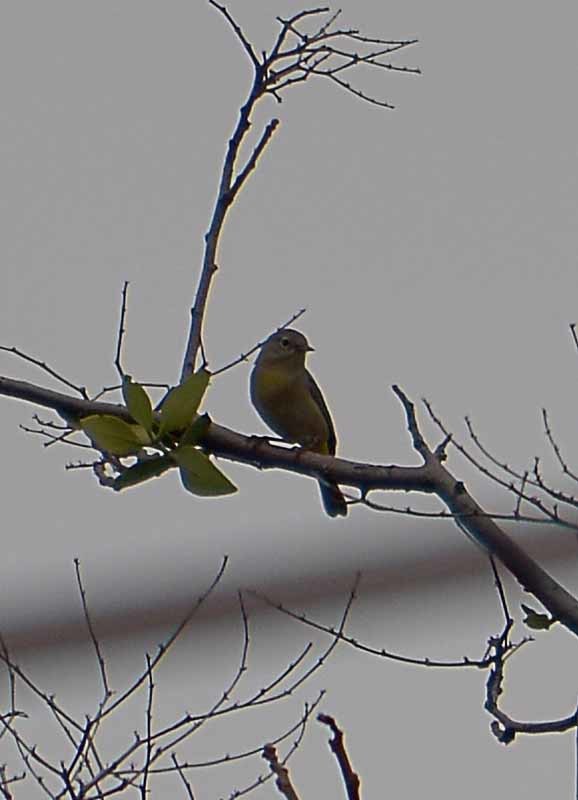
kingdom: Animalia
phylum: Chordata
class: Aves
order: Passeriformes
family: Parulidae
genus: Leiothlypis
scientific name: Leiothlypis ruficapilla
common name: Nashville warbler
